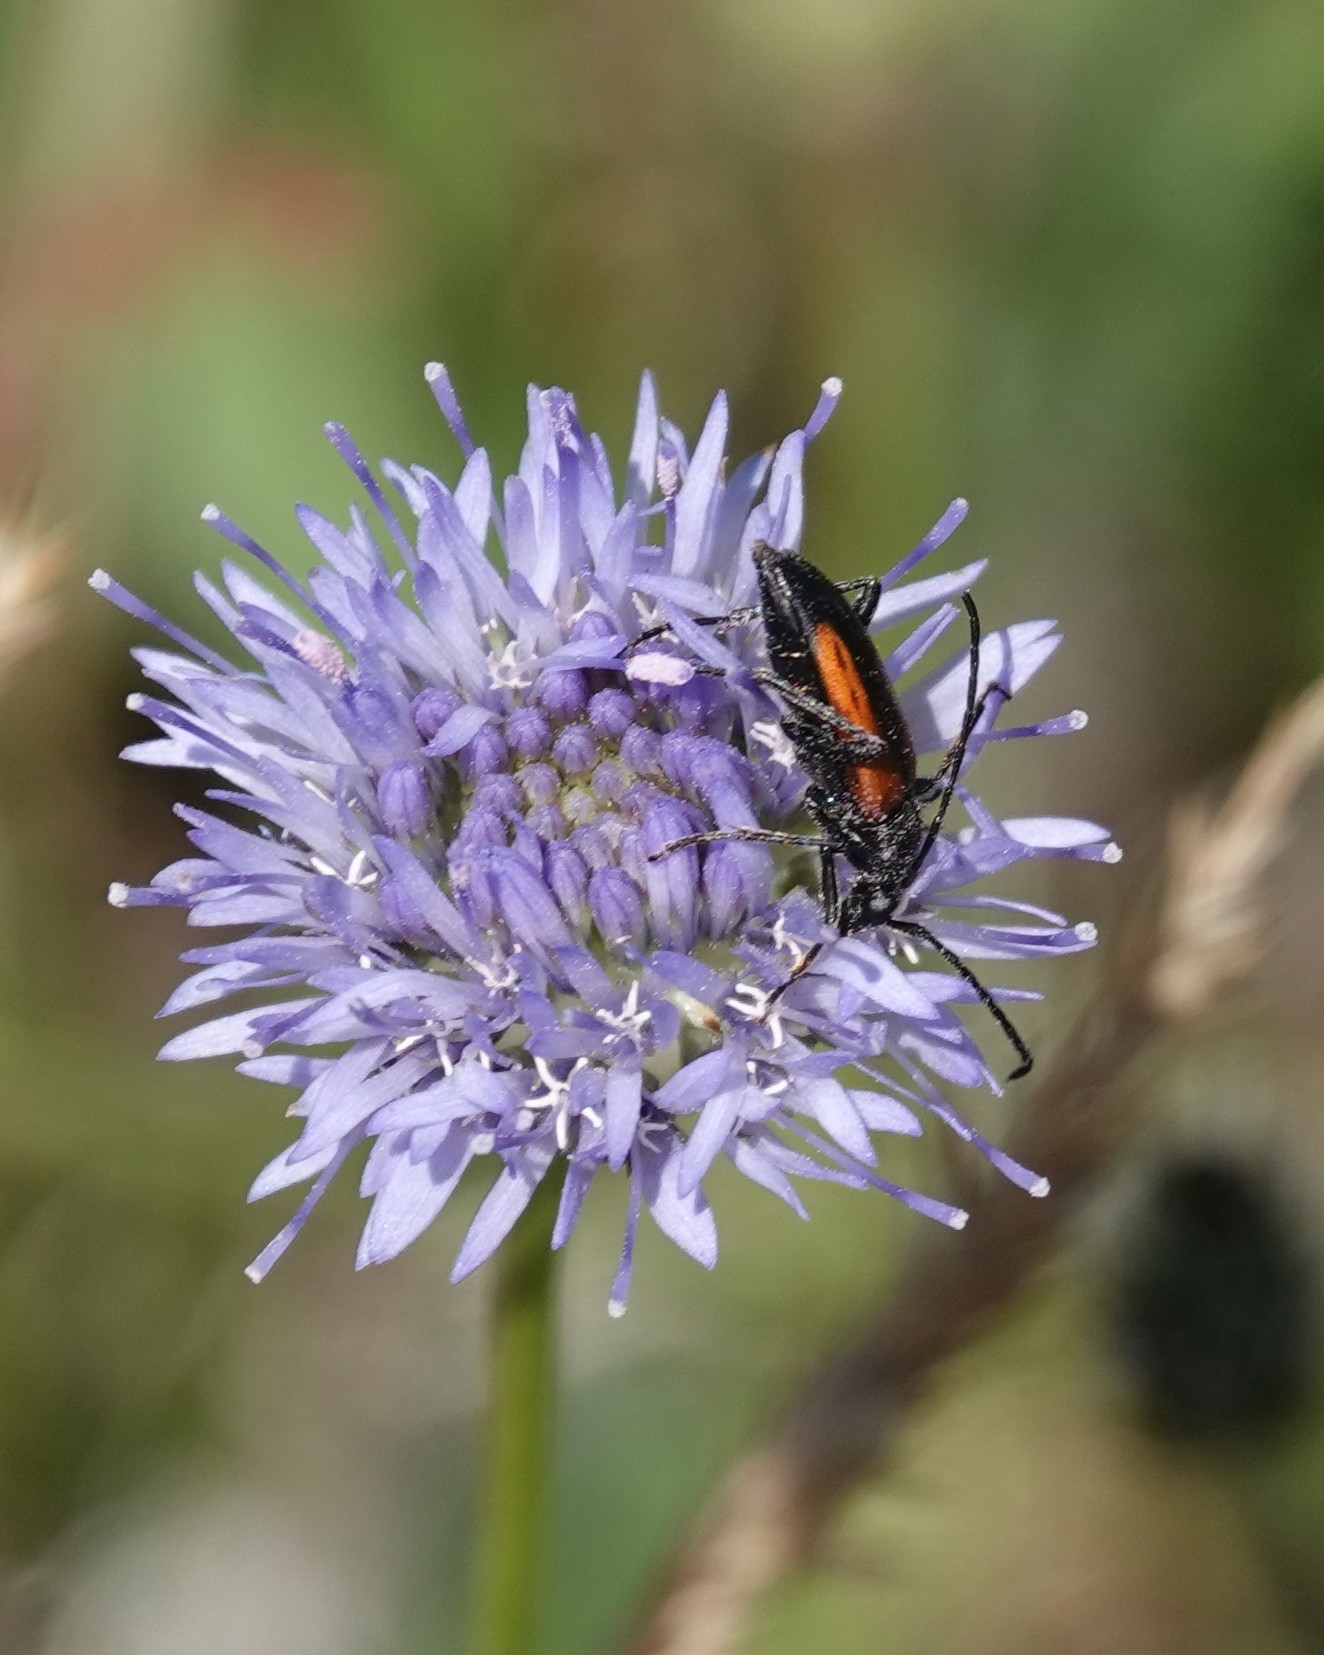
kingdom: Animalia
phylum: Arthropoda
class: Insecta
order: Coleoptera
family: Cerambycidae
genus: Stenurella
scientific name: Stenurella melanura
